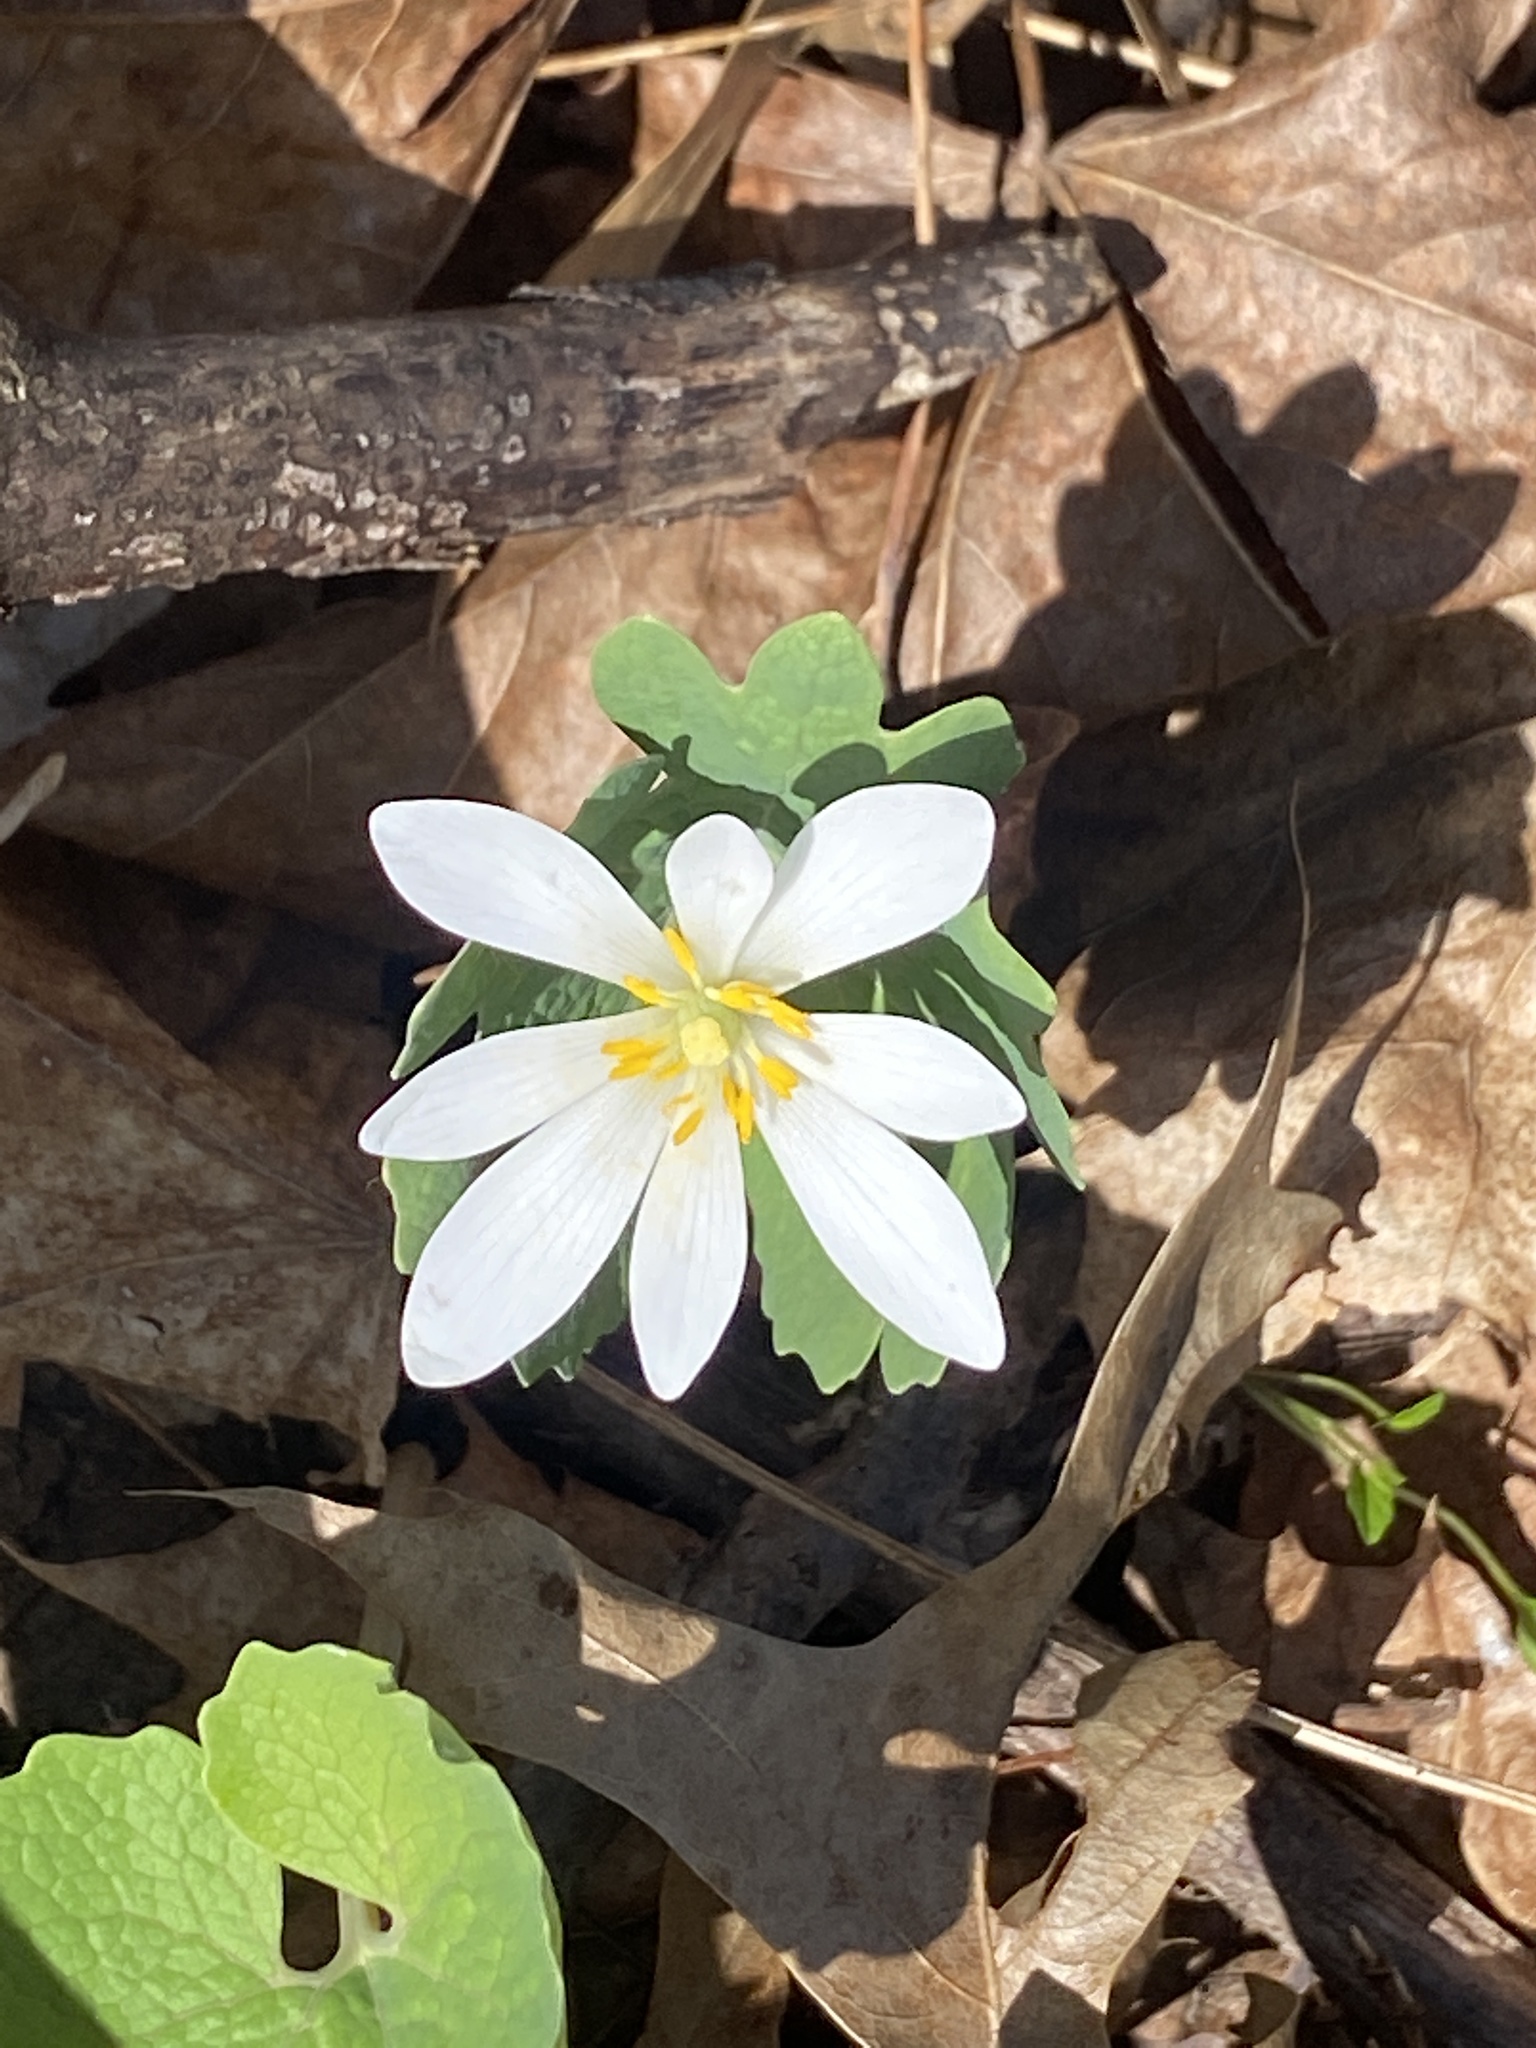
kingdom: Plantae
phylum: Tracheophyta
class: Magnoliopsida
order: Ranunculales
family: Papaveraceae
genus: Sanguinaria
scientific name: Sanguinaria canadensis
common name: Bloodroot
